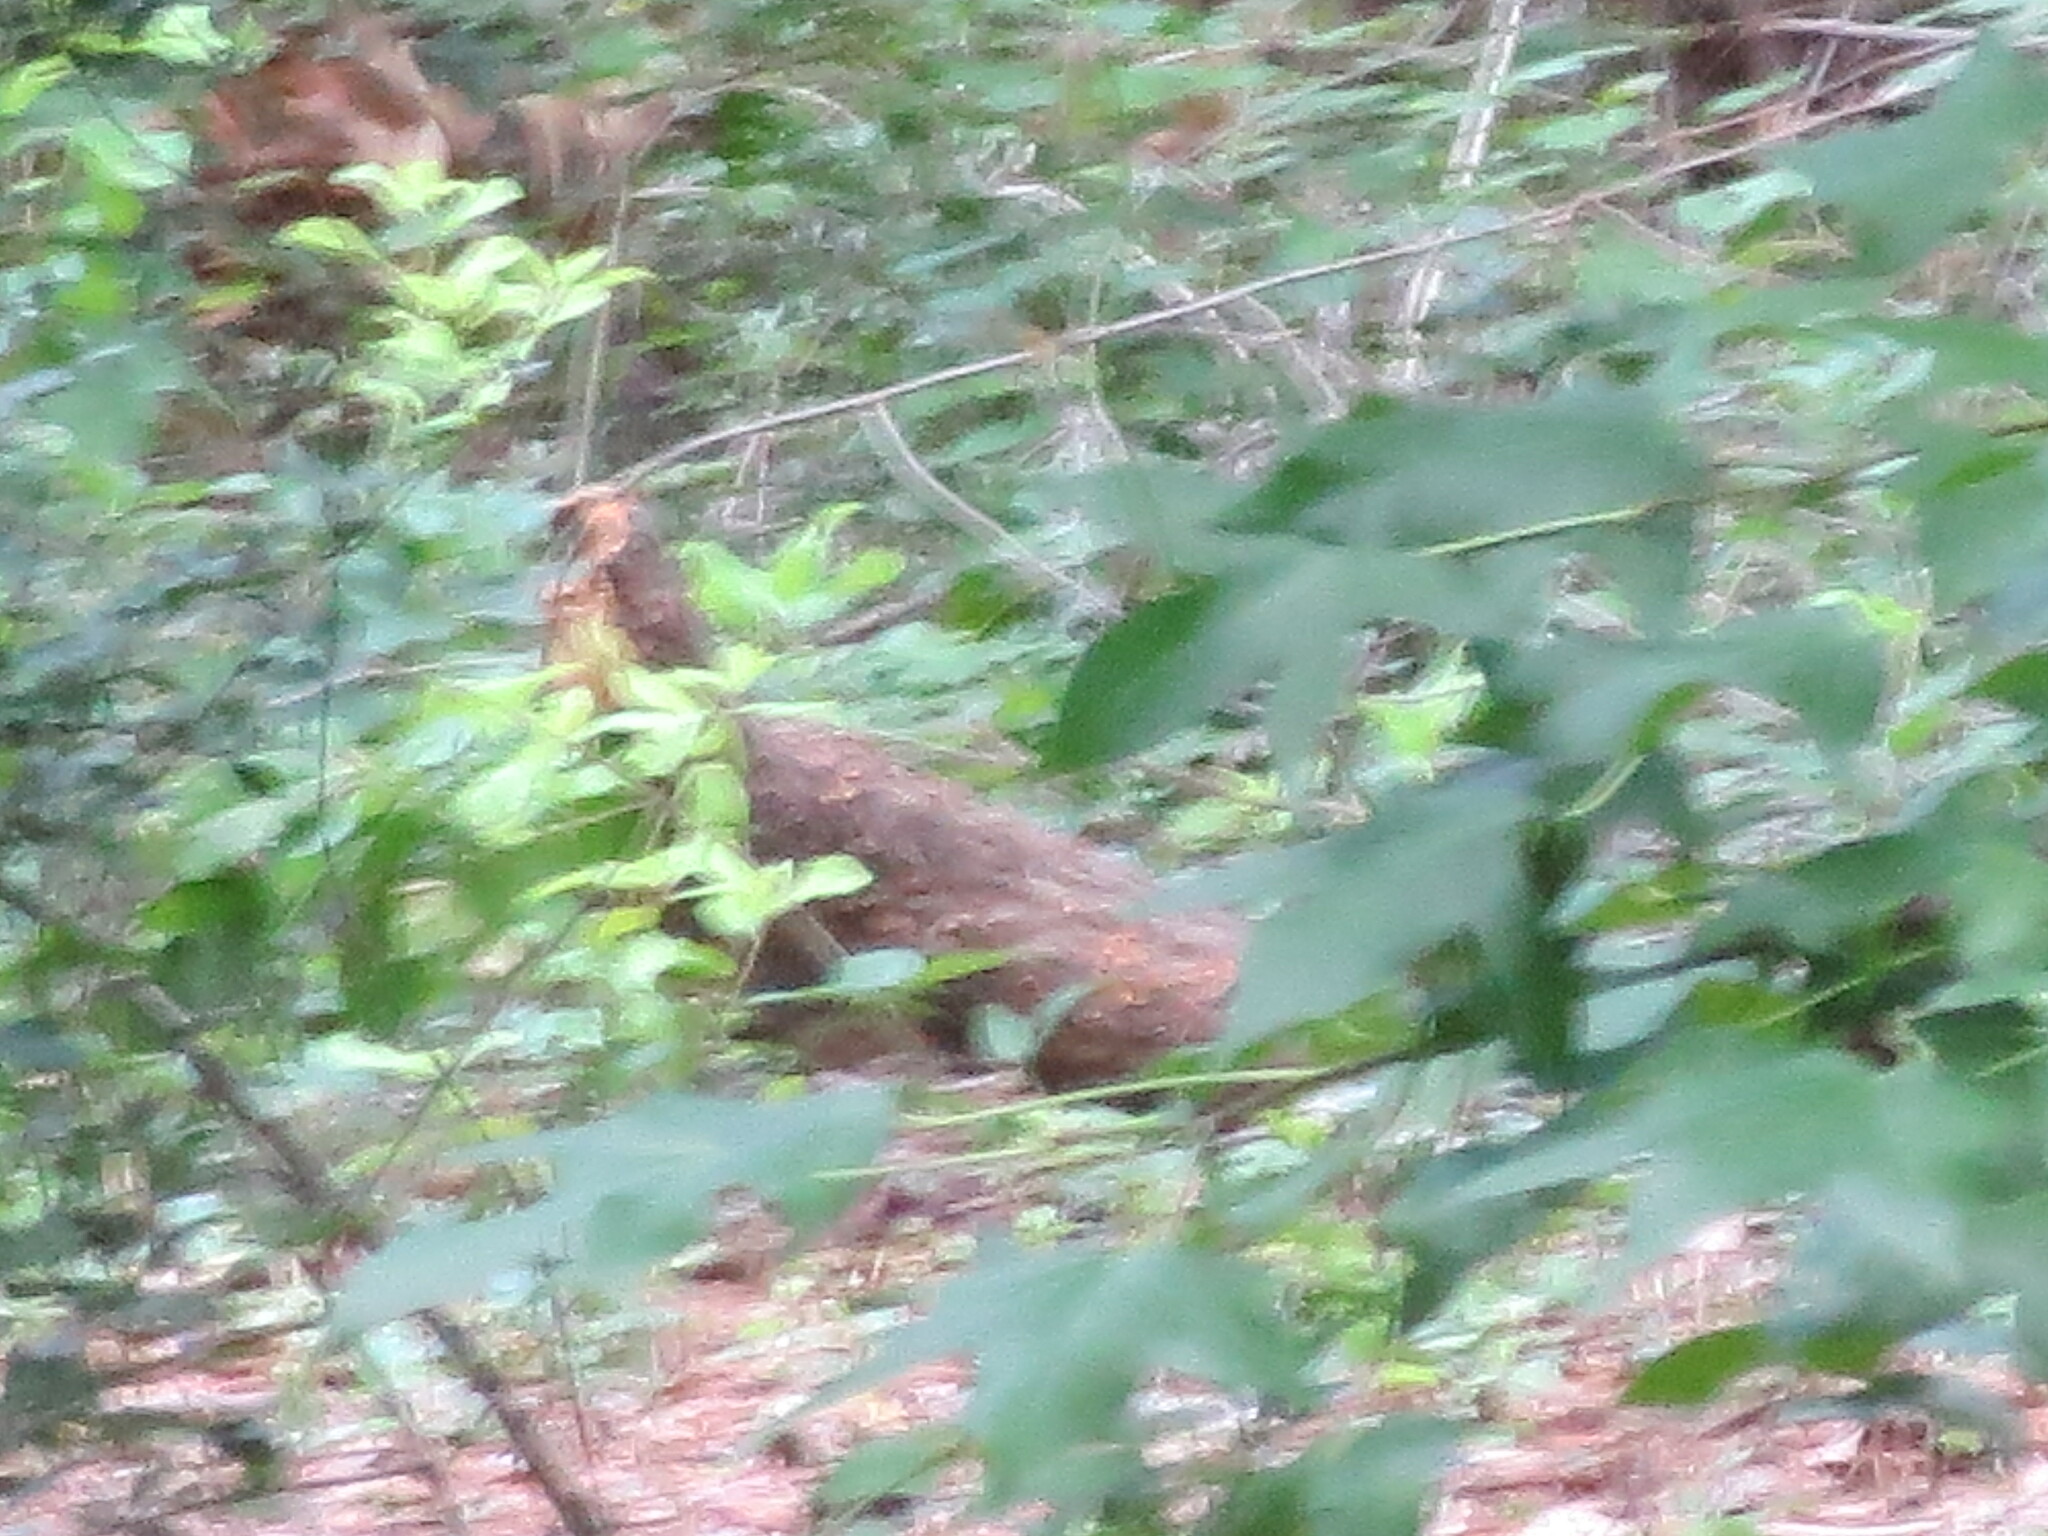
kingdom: Plantae
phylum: Tracheophyta
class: Magnoliopsida
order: Saxifragales
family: Altingiaceae
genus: Liquidambar
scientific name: Liquidambar styraciflua
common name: Sweet gum
